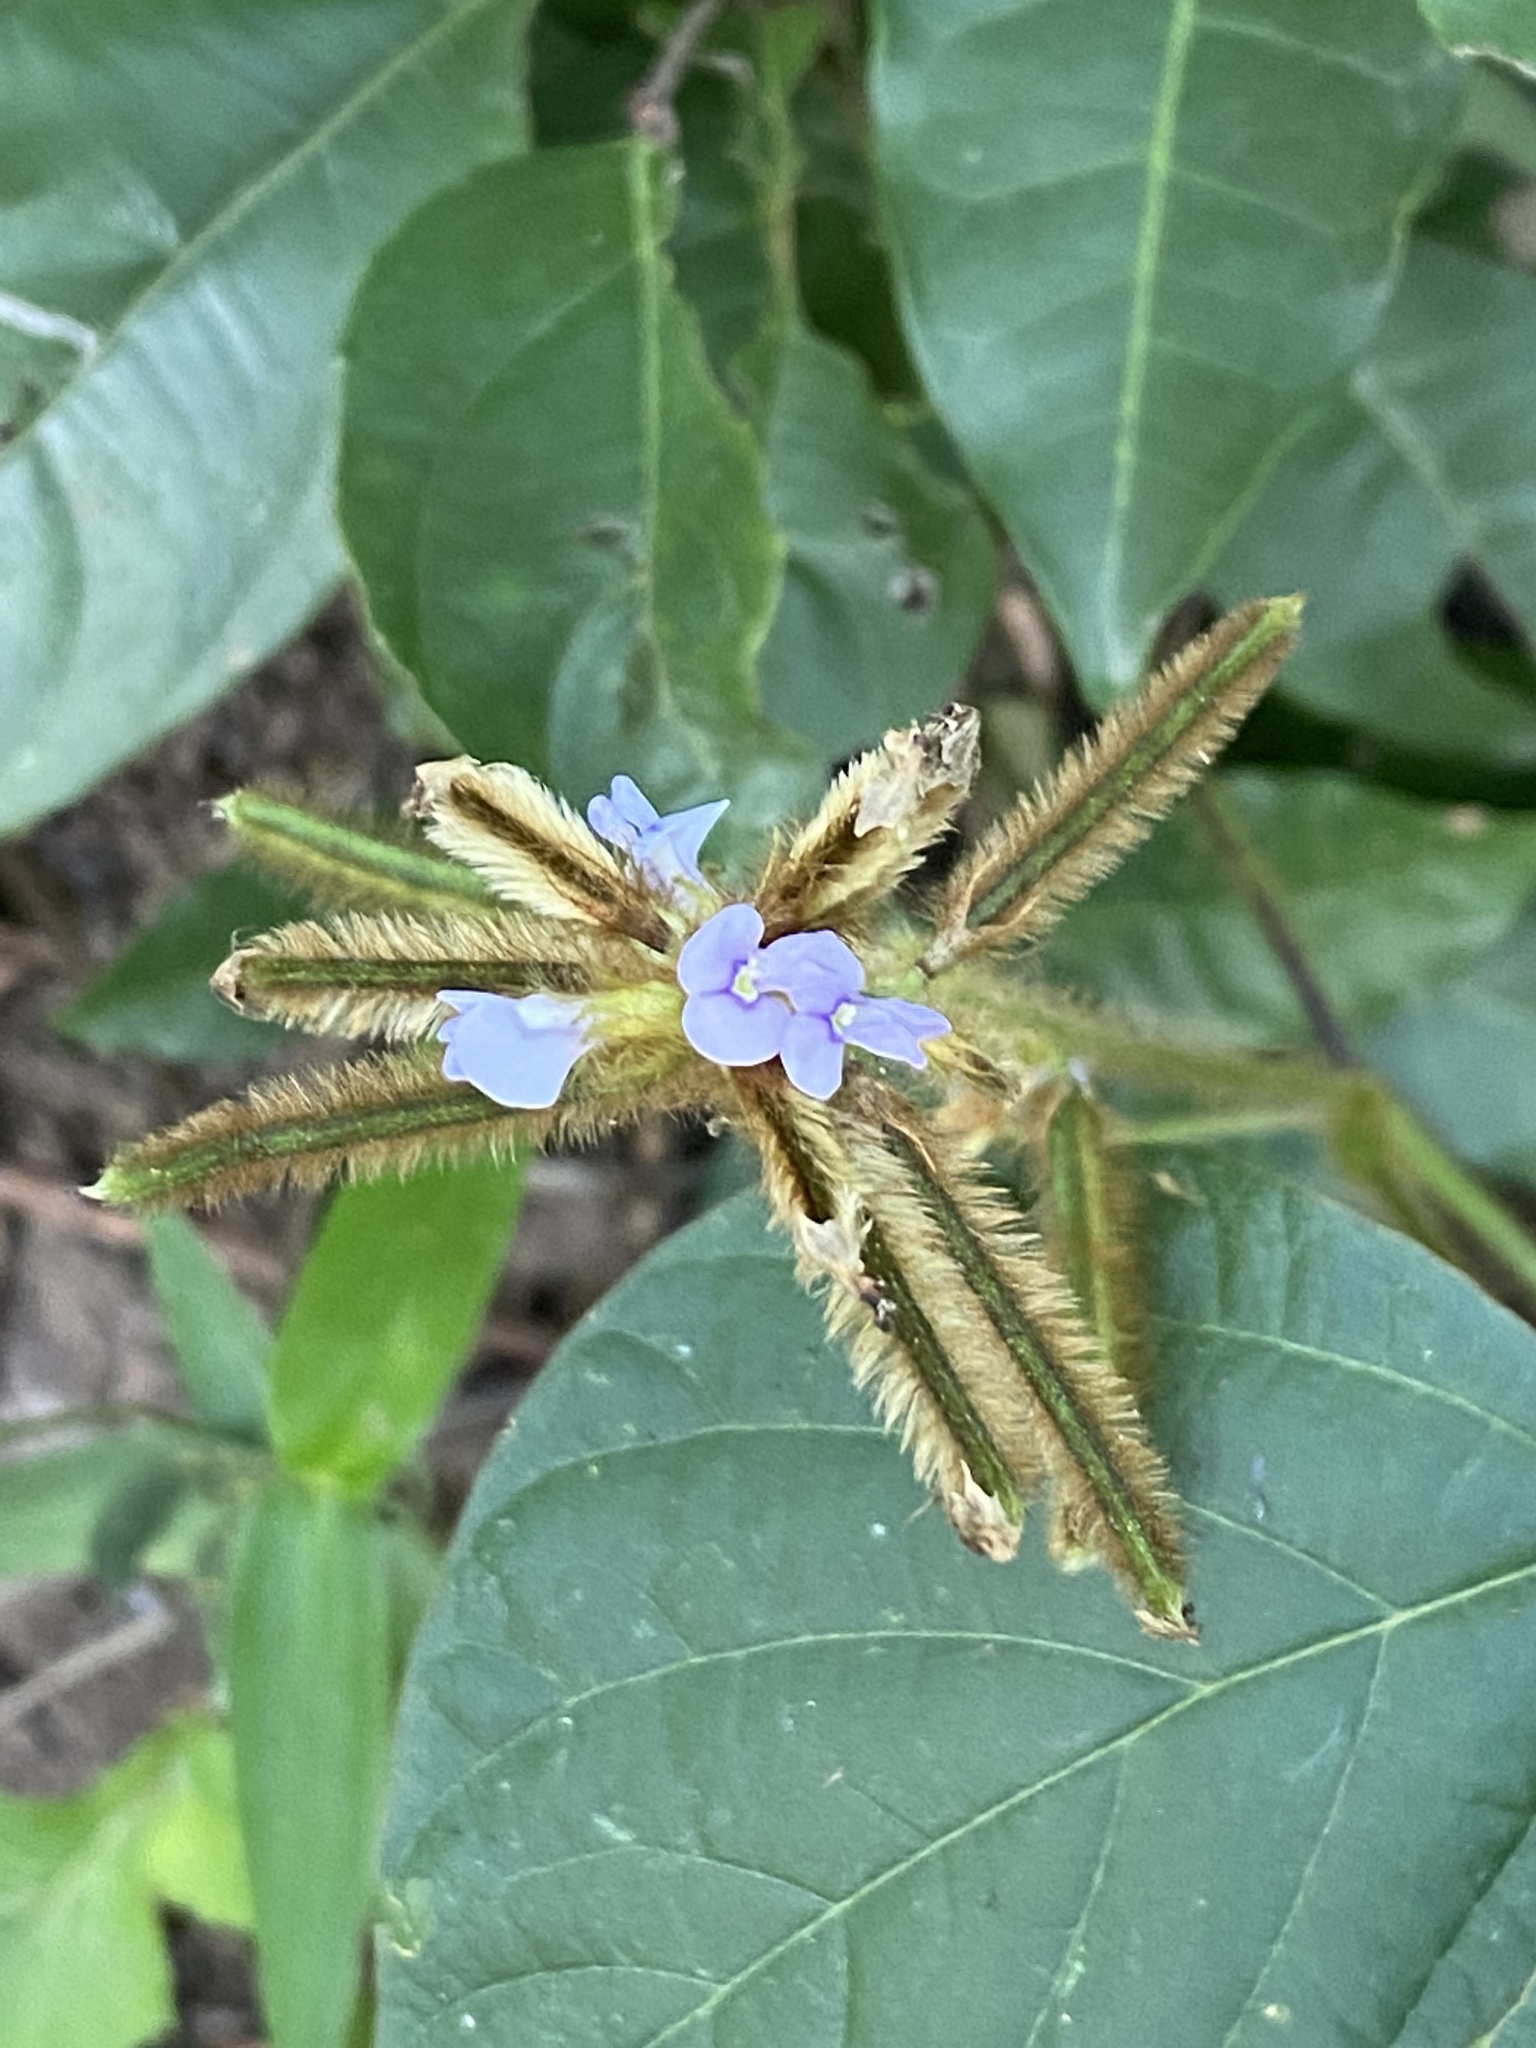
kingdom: Plantae
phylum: Tracheophyta
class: Magnoliopsida
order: Fabales
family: Fabaceae
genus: Calopogonium
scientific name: Calopogonium mucunoides
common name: Calopo
